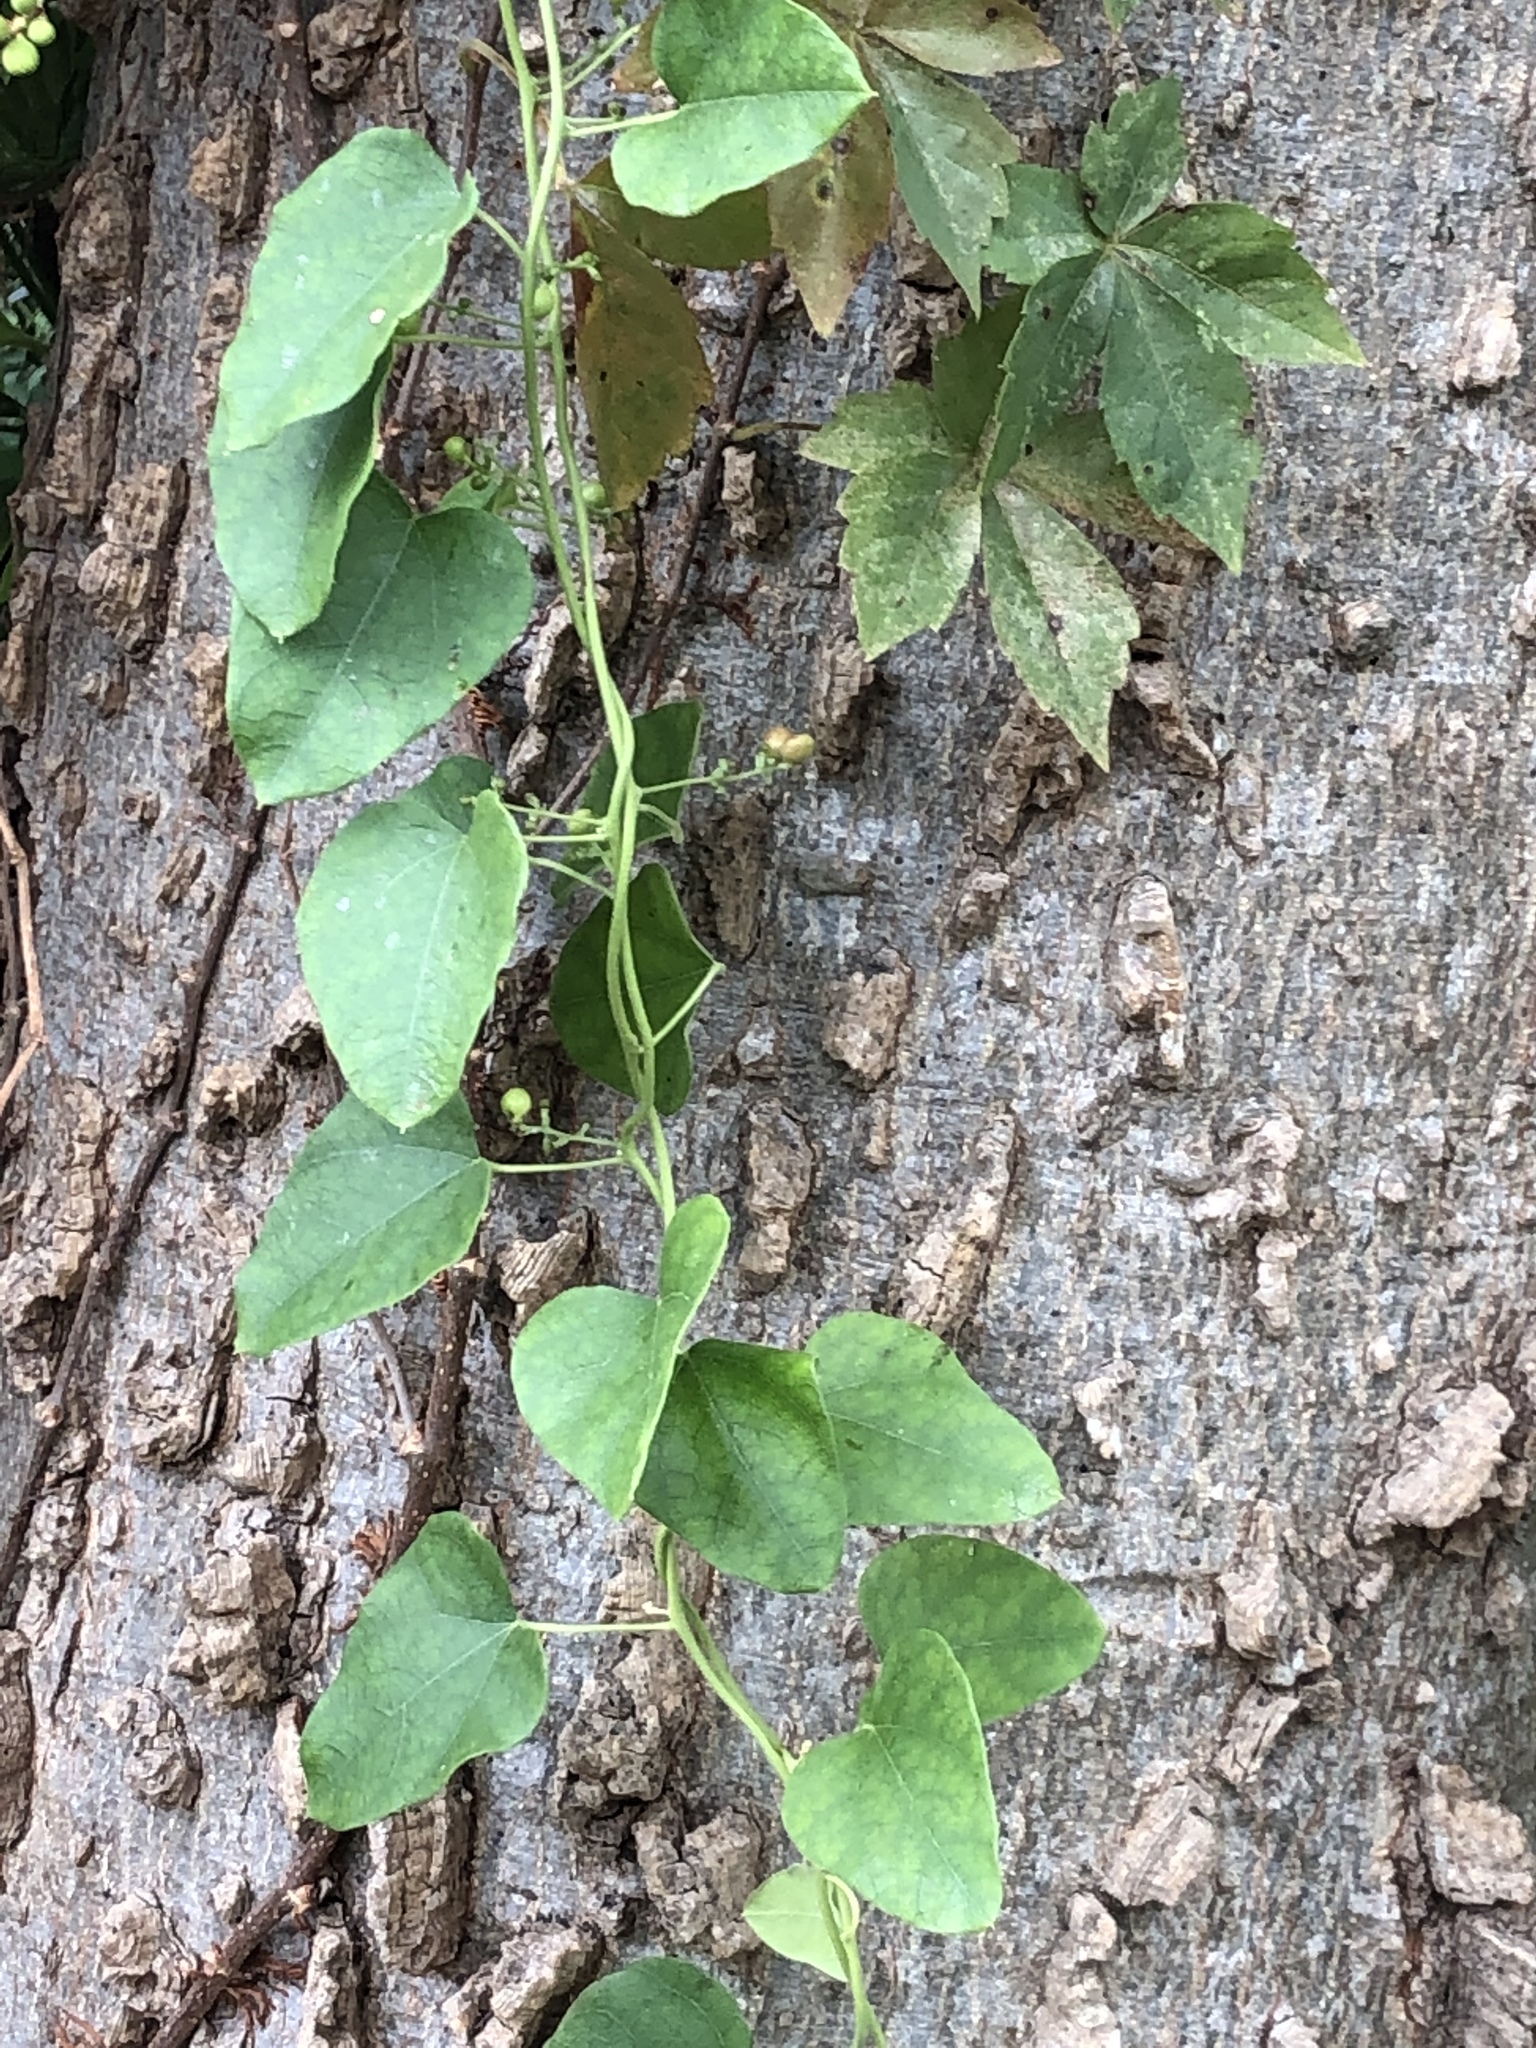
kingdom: Plantae
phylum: Tracheophyta
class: Magnoliopsida
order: Ranunculales
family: Menispermaceae
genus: Cocculus
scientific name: Cocculus carolinus
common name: Carolina moonseed
